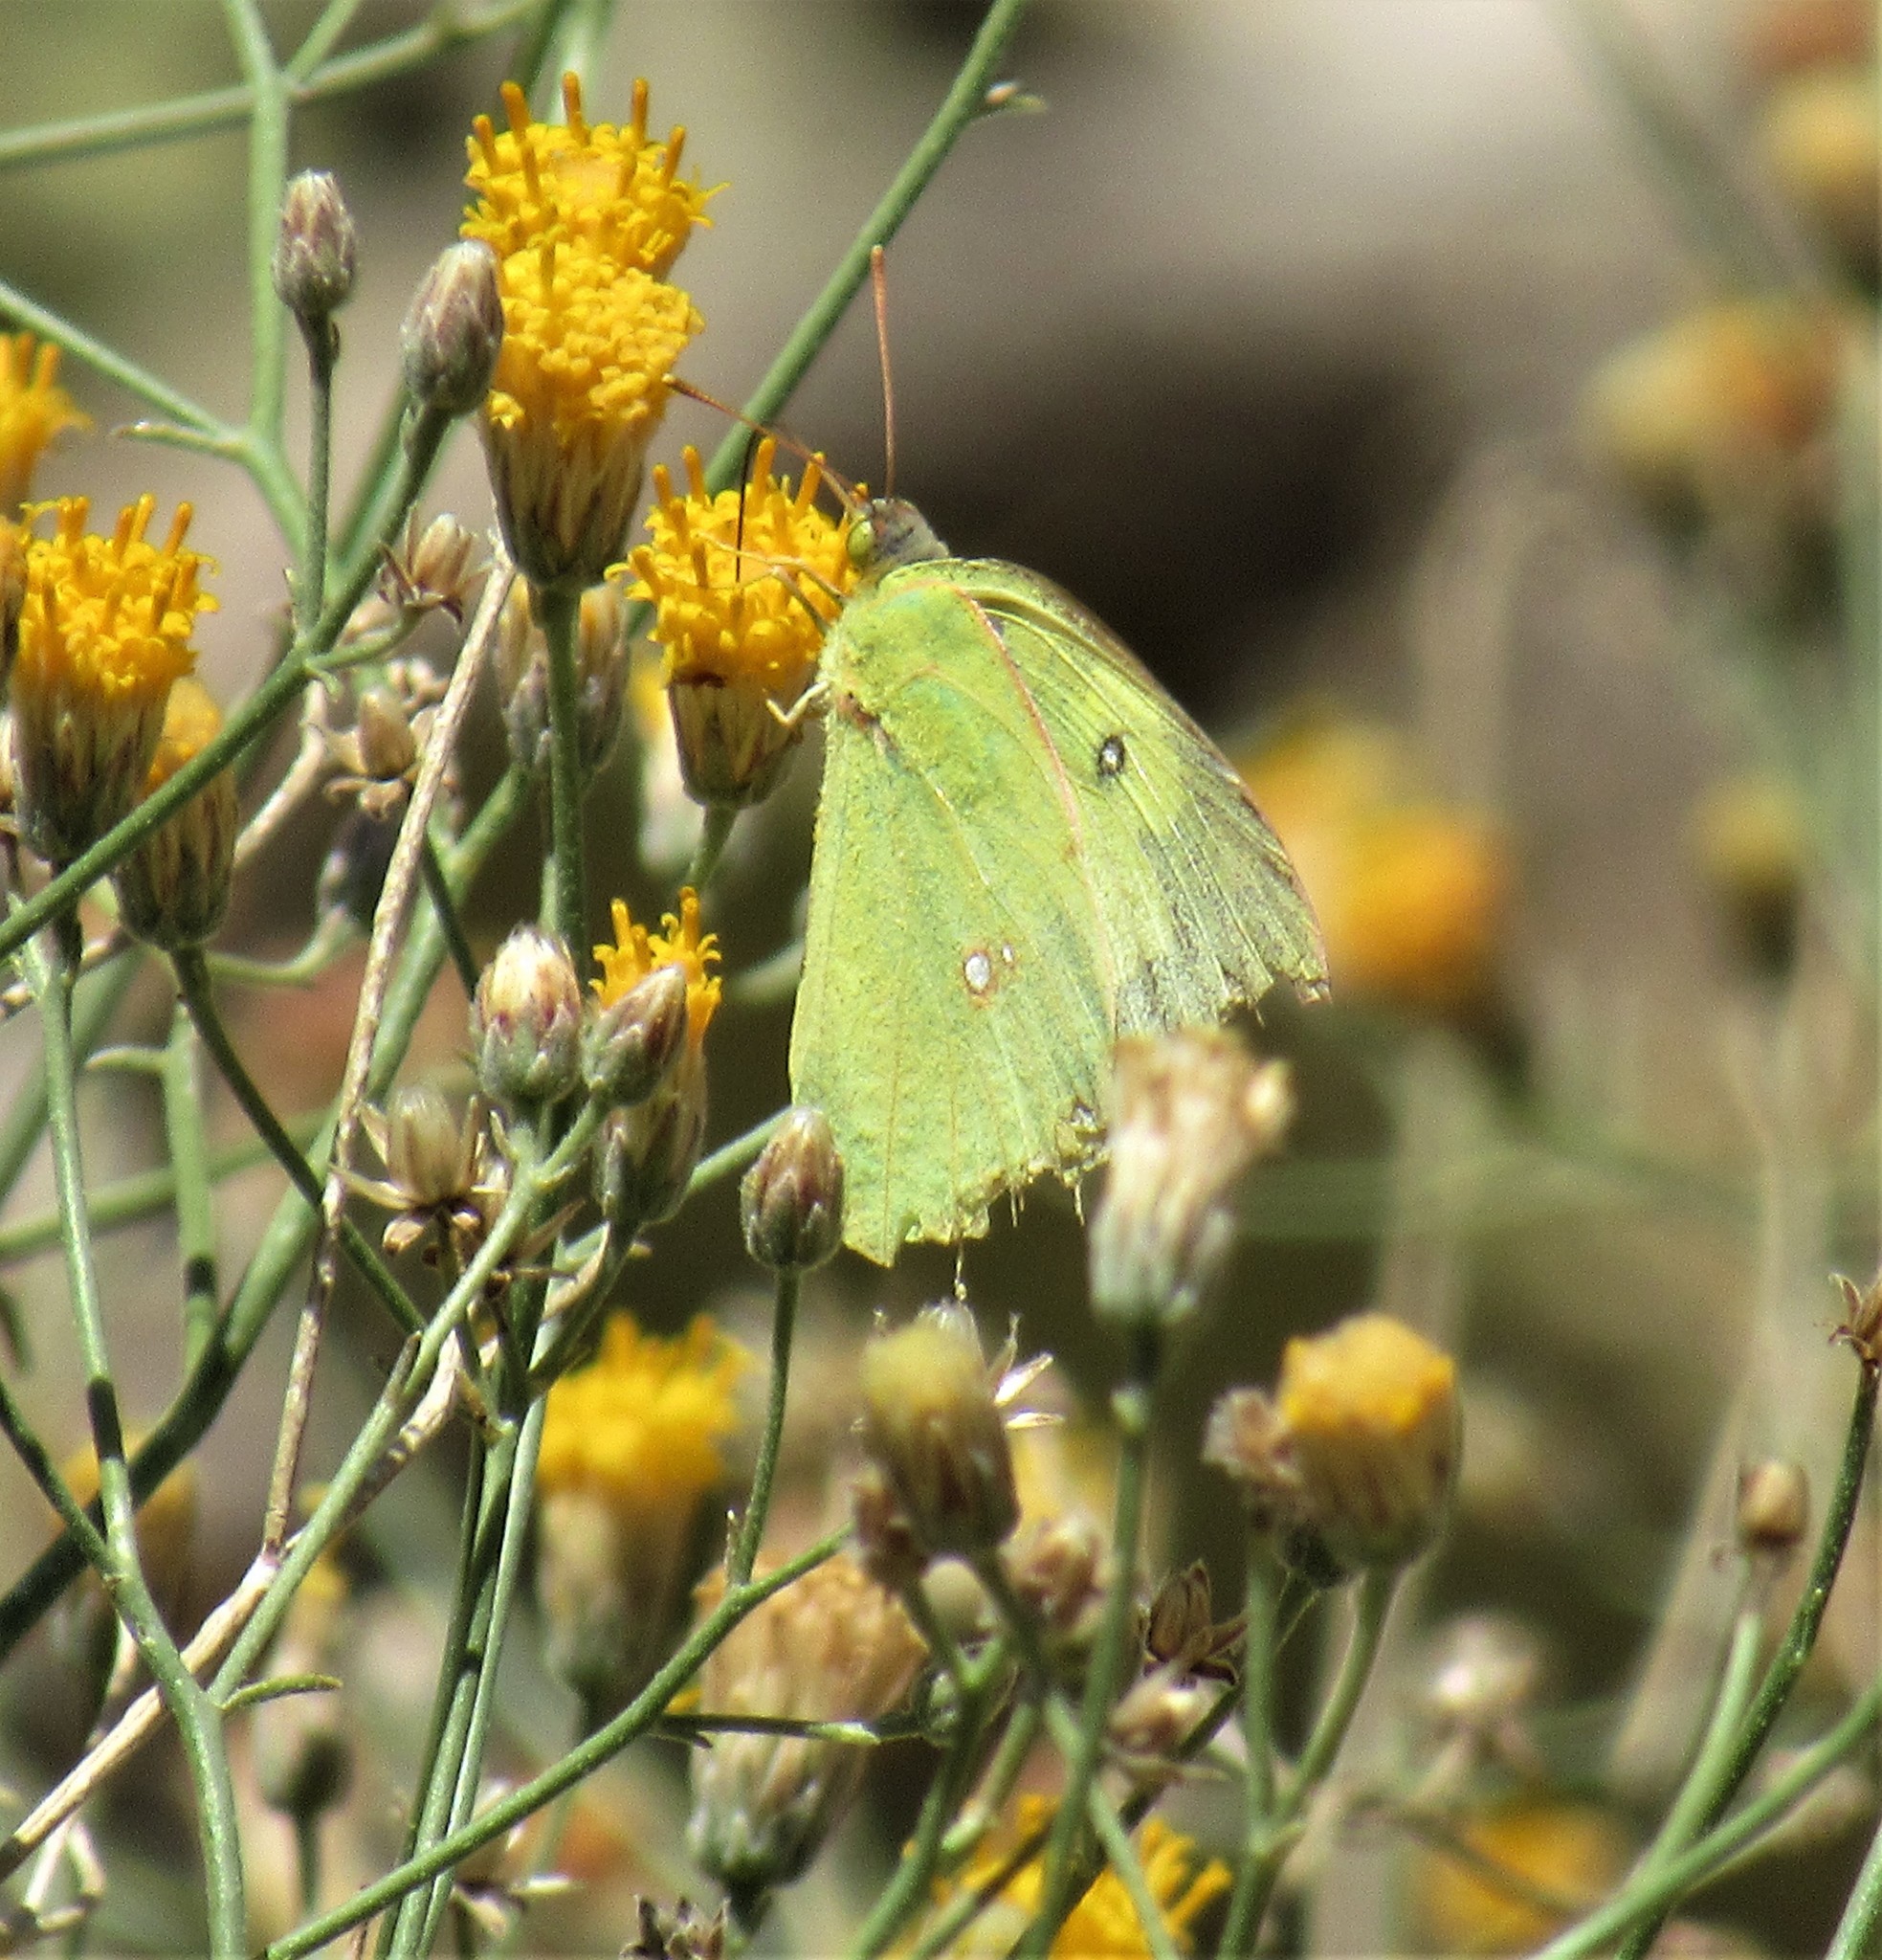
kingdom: Animalia
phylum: Arthropoda
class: Insecta
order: Lepidoptera
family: Pieridae
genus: Zerene
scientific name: Zerene cesonia
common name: Southern dogface
